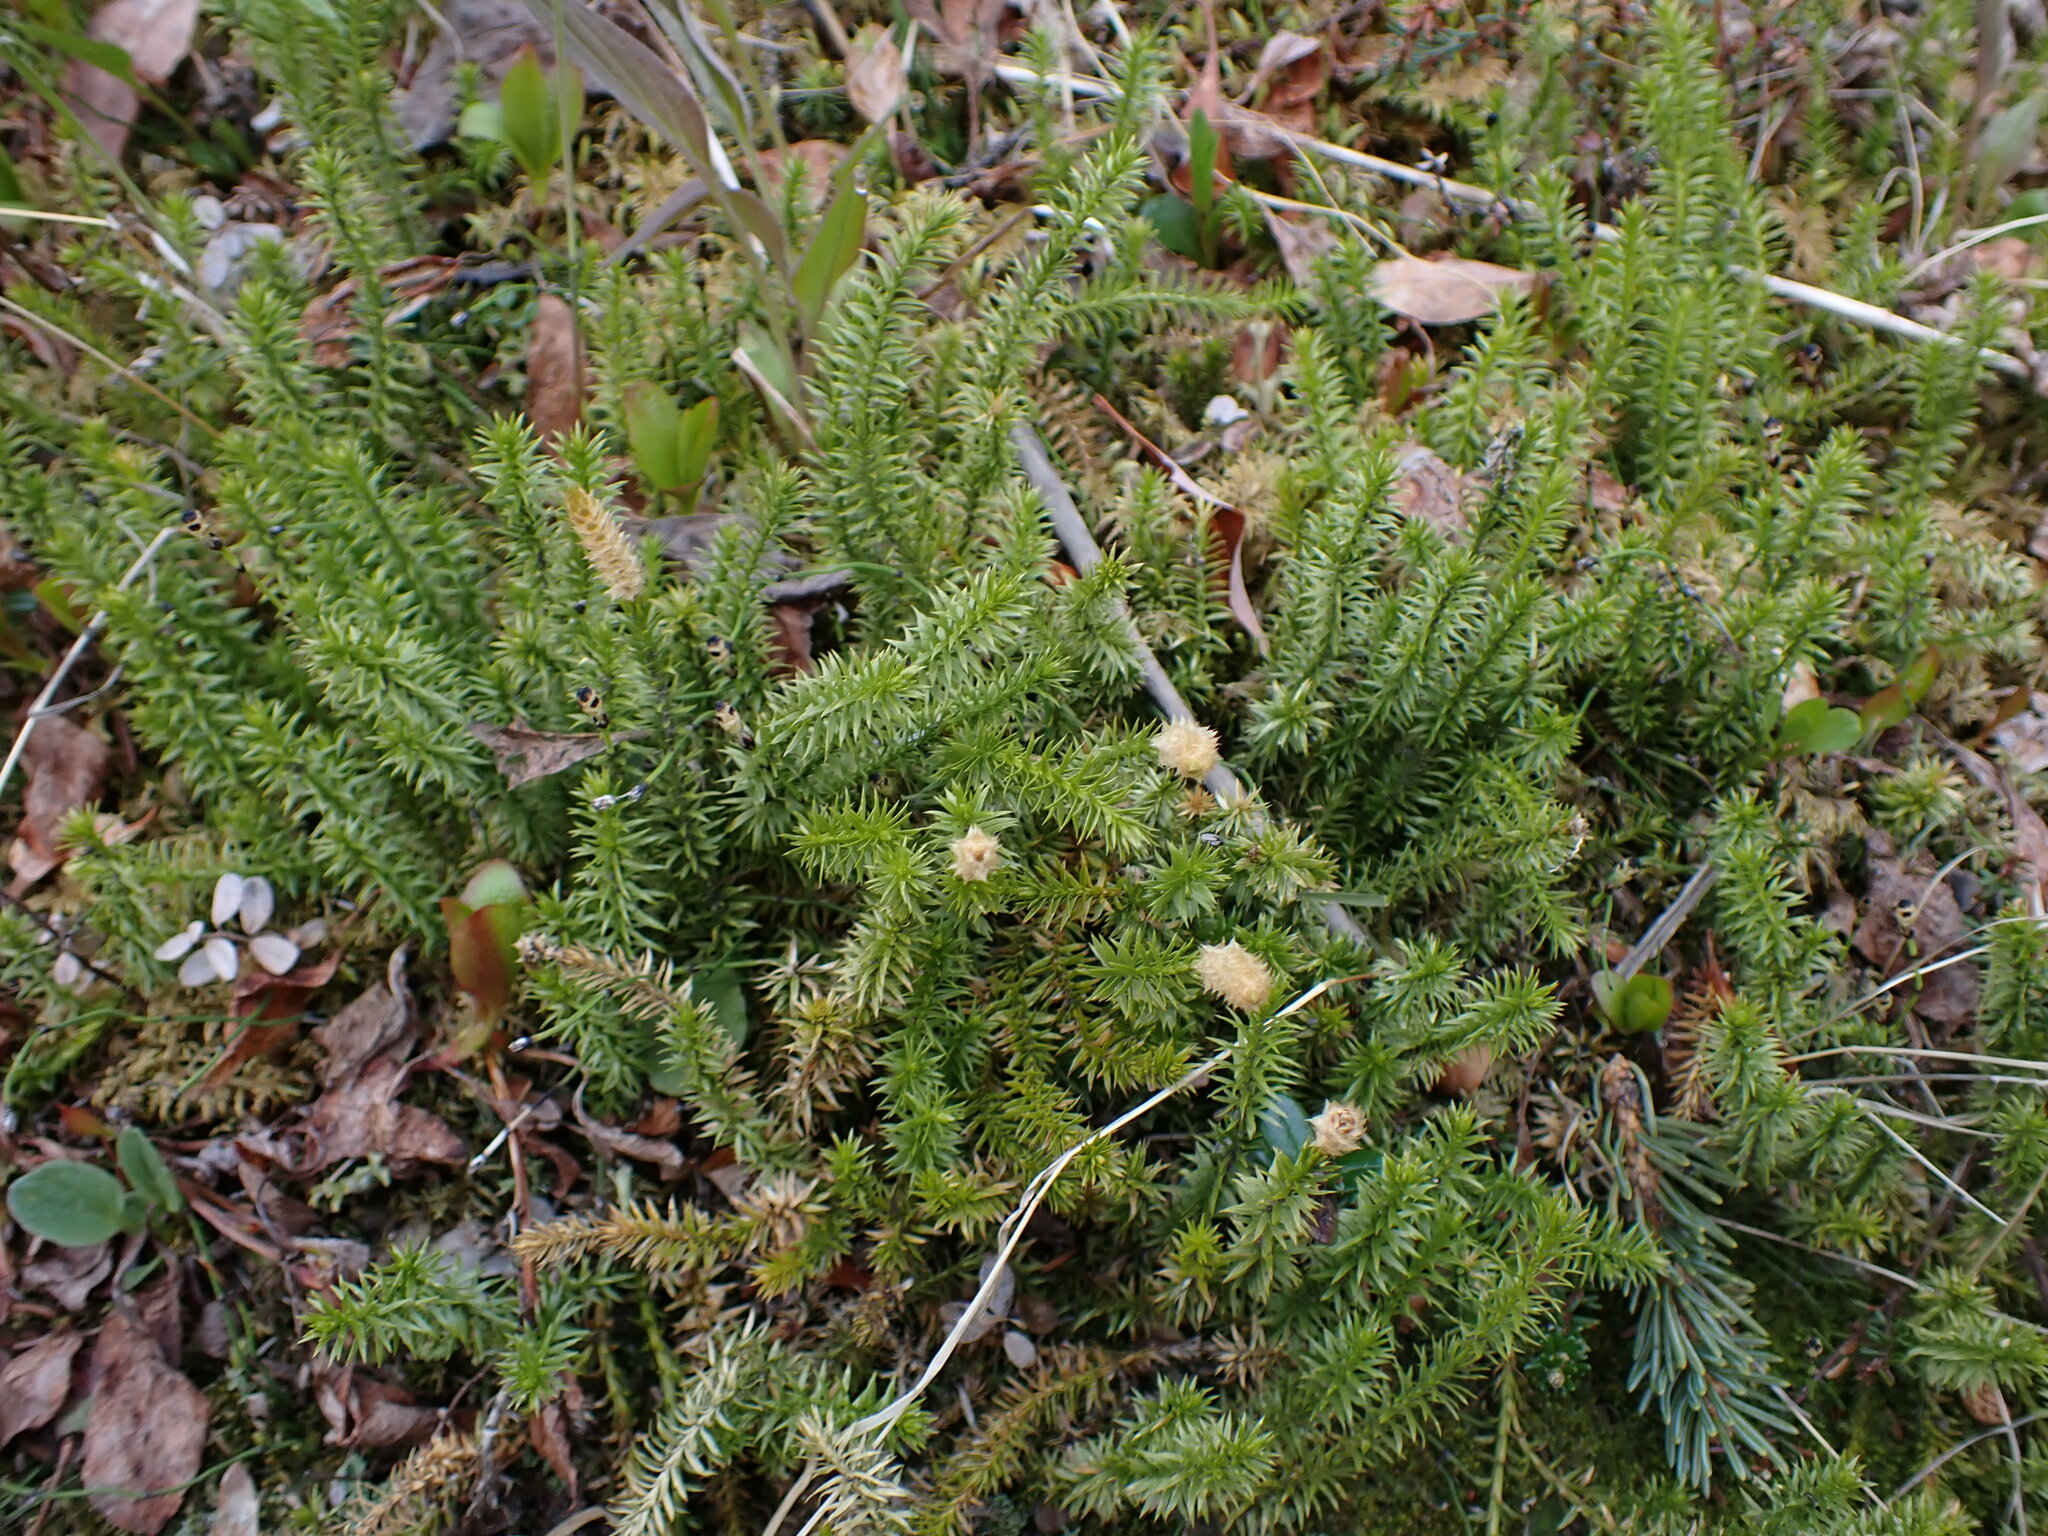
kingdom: Plantae
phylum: Tracheophyta
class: Lycopodiopsida
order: Lycopodiales
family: Lycopodiaceae
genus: Spinulum
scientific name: Spinulum annotinum
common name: Interrupted club-moss
